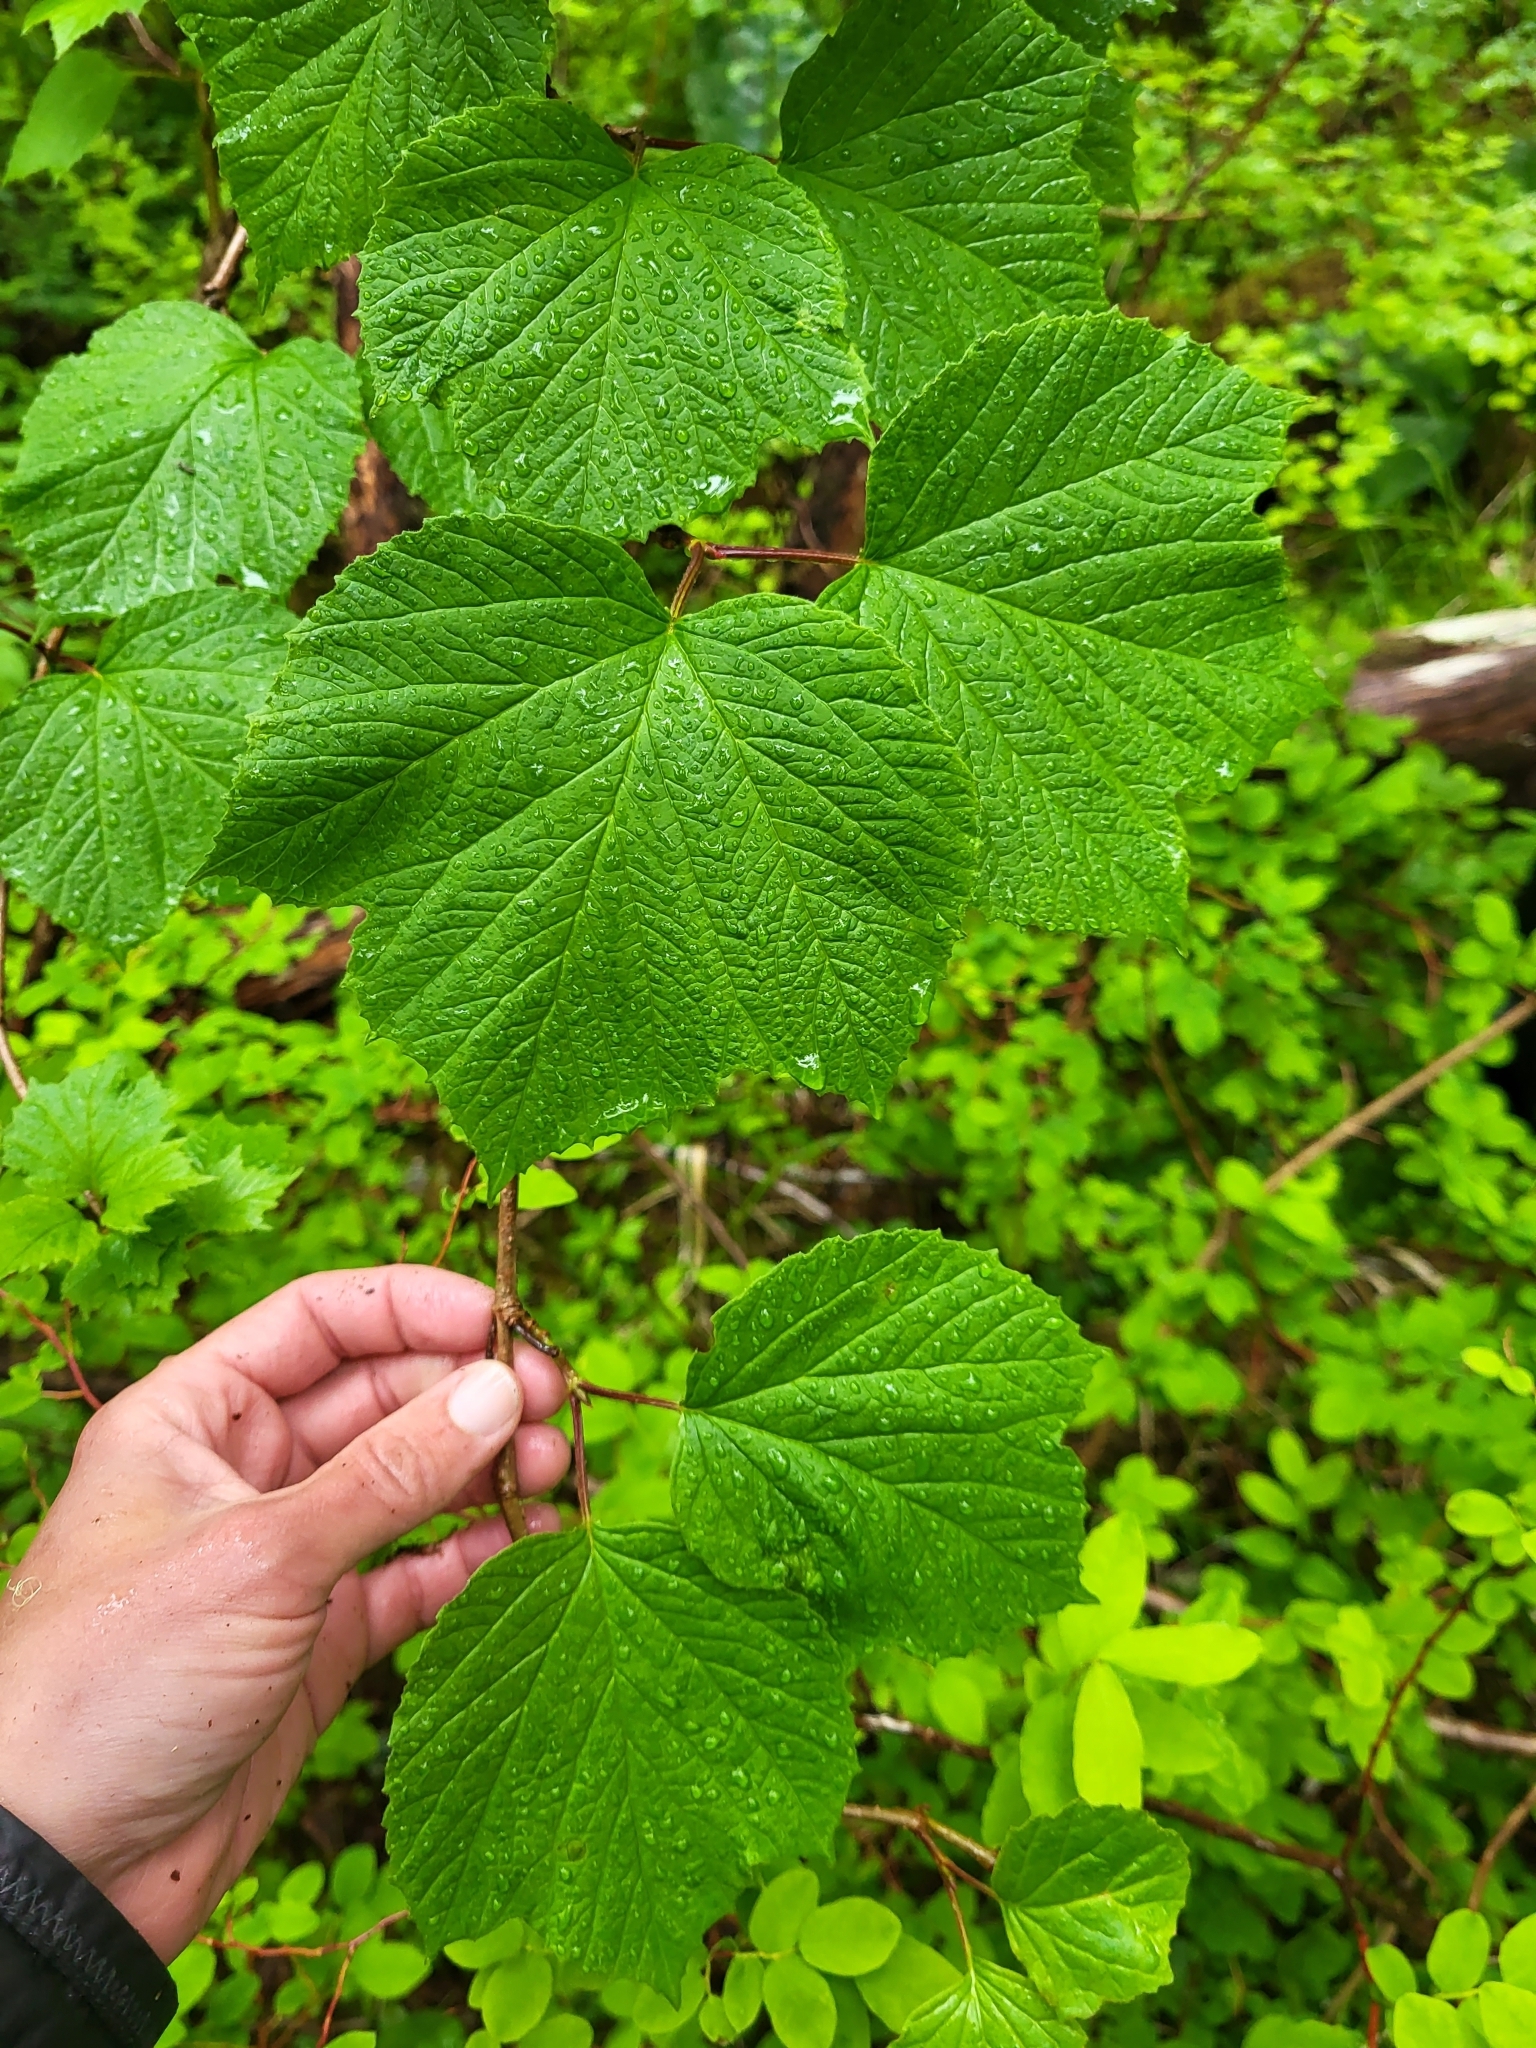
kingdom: Plantae
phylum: Tracheophyta
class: Magnoliopsida
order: Dipsacales
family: Viburnaceae
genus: Viburnum
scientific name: Viburnum edule
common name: Mooseberry
